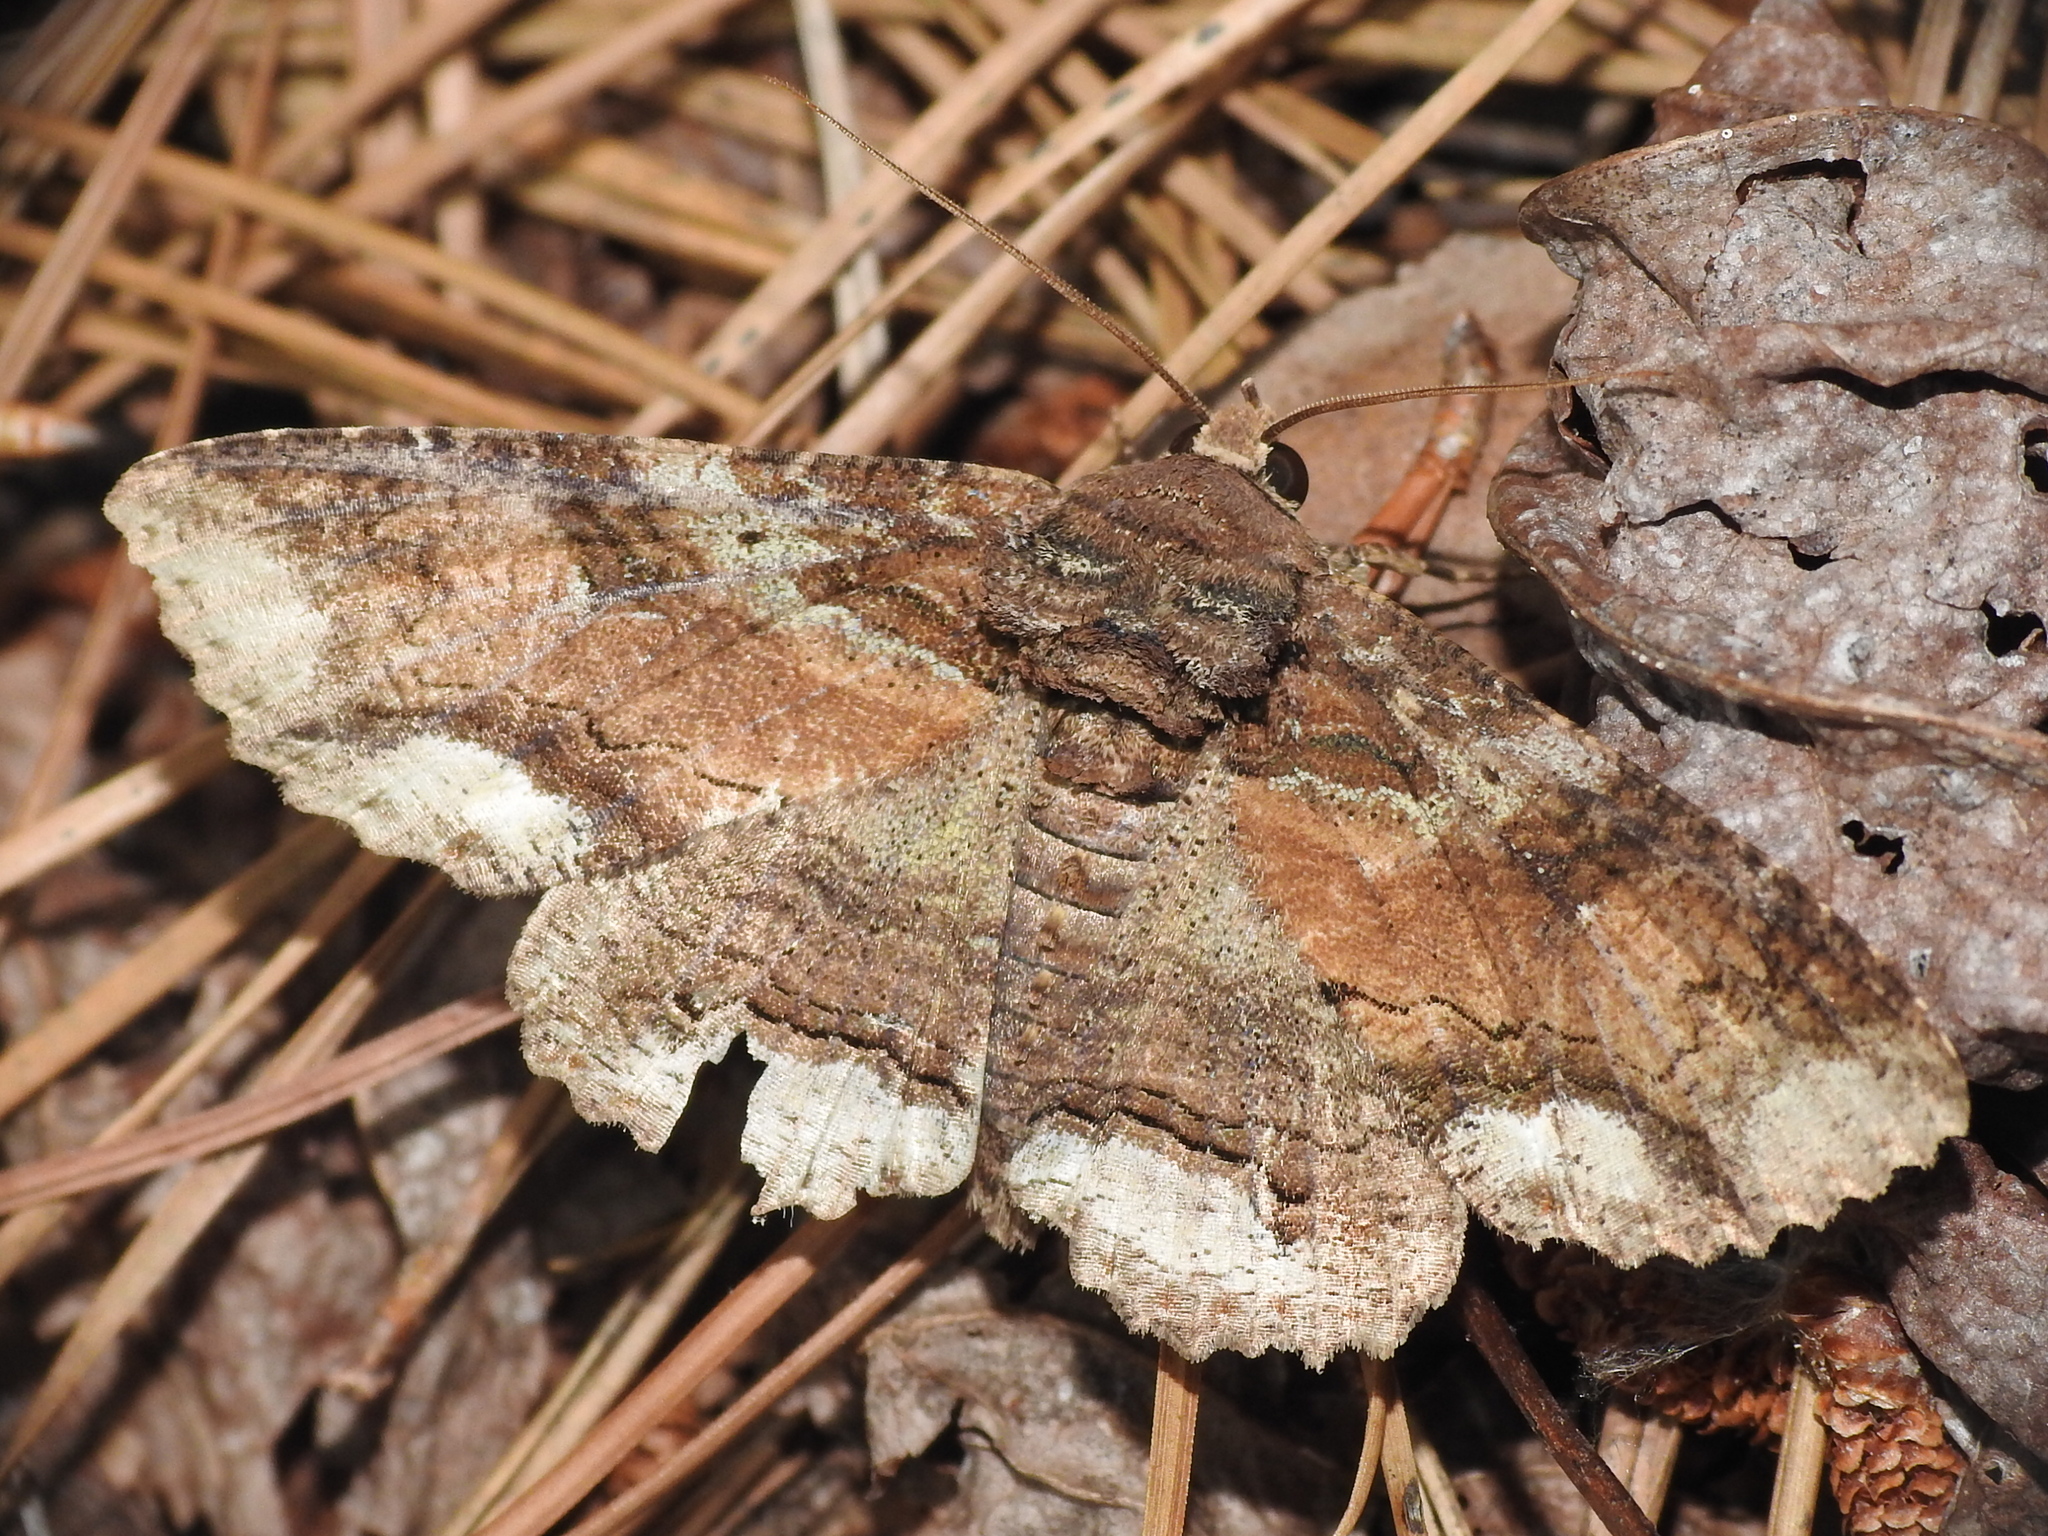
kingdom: Animalia
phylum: Arthropoda
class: Insecta
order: Lepidoptera
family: Erebidae
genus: Zale
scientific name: Zale lunata
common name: Lunate zale moth
